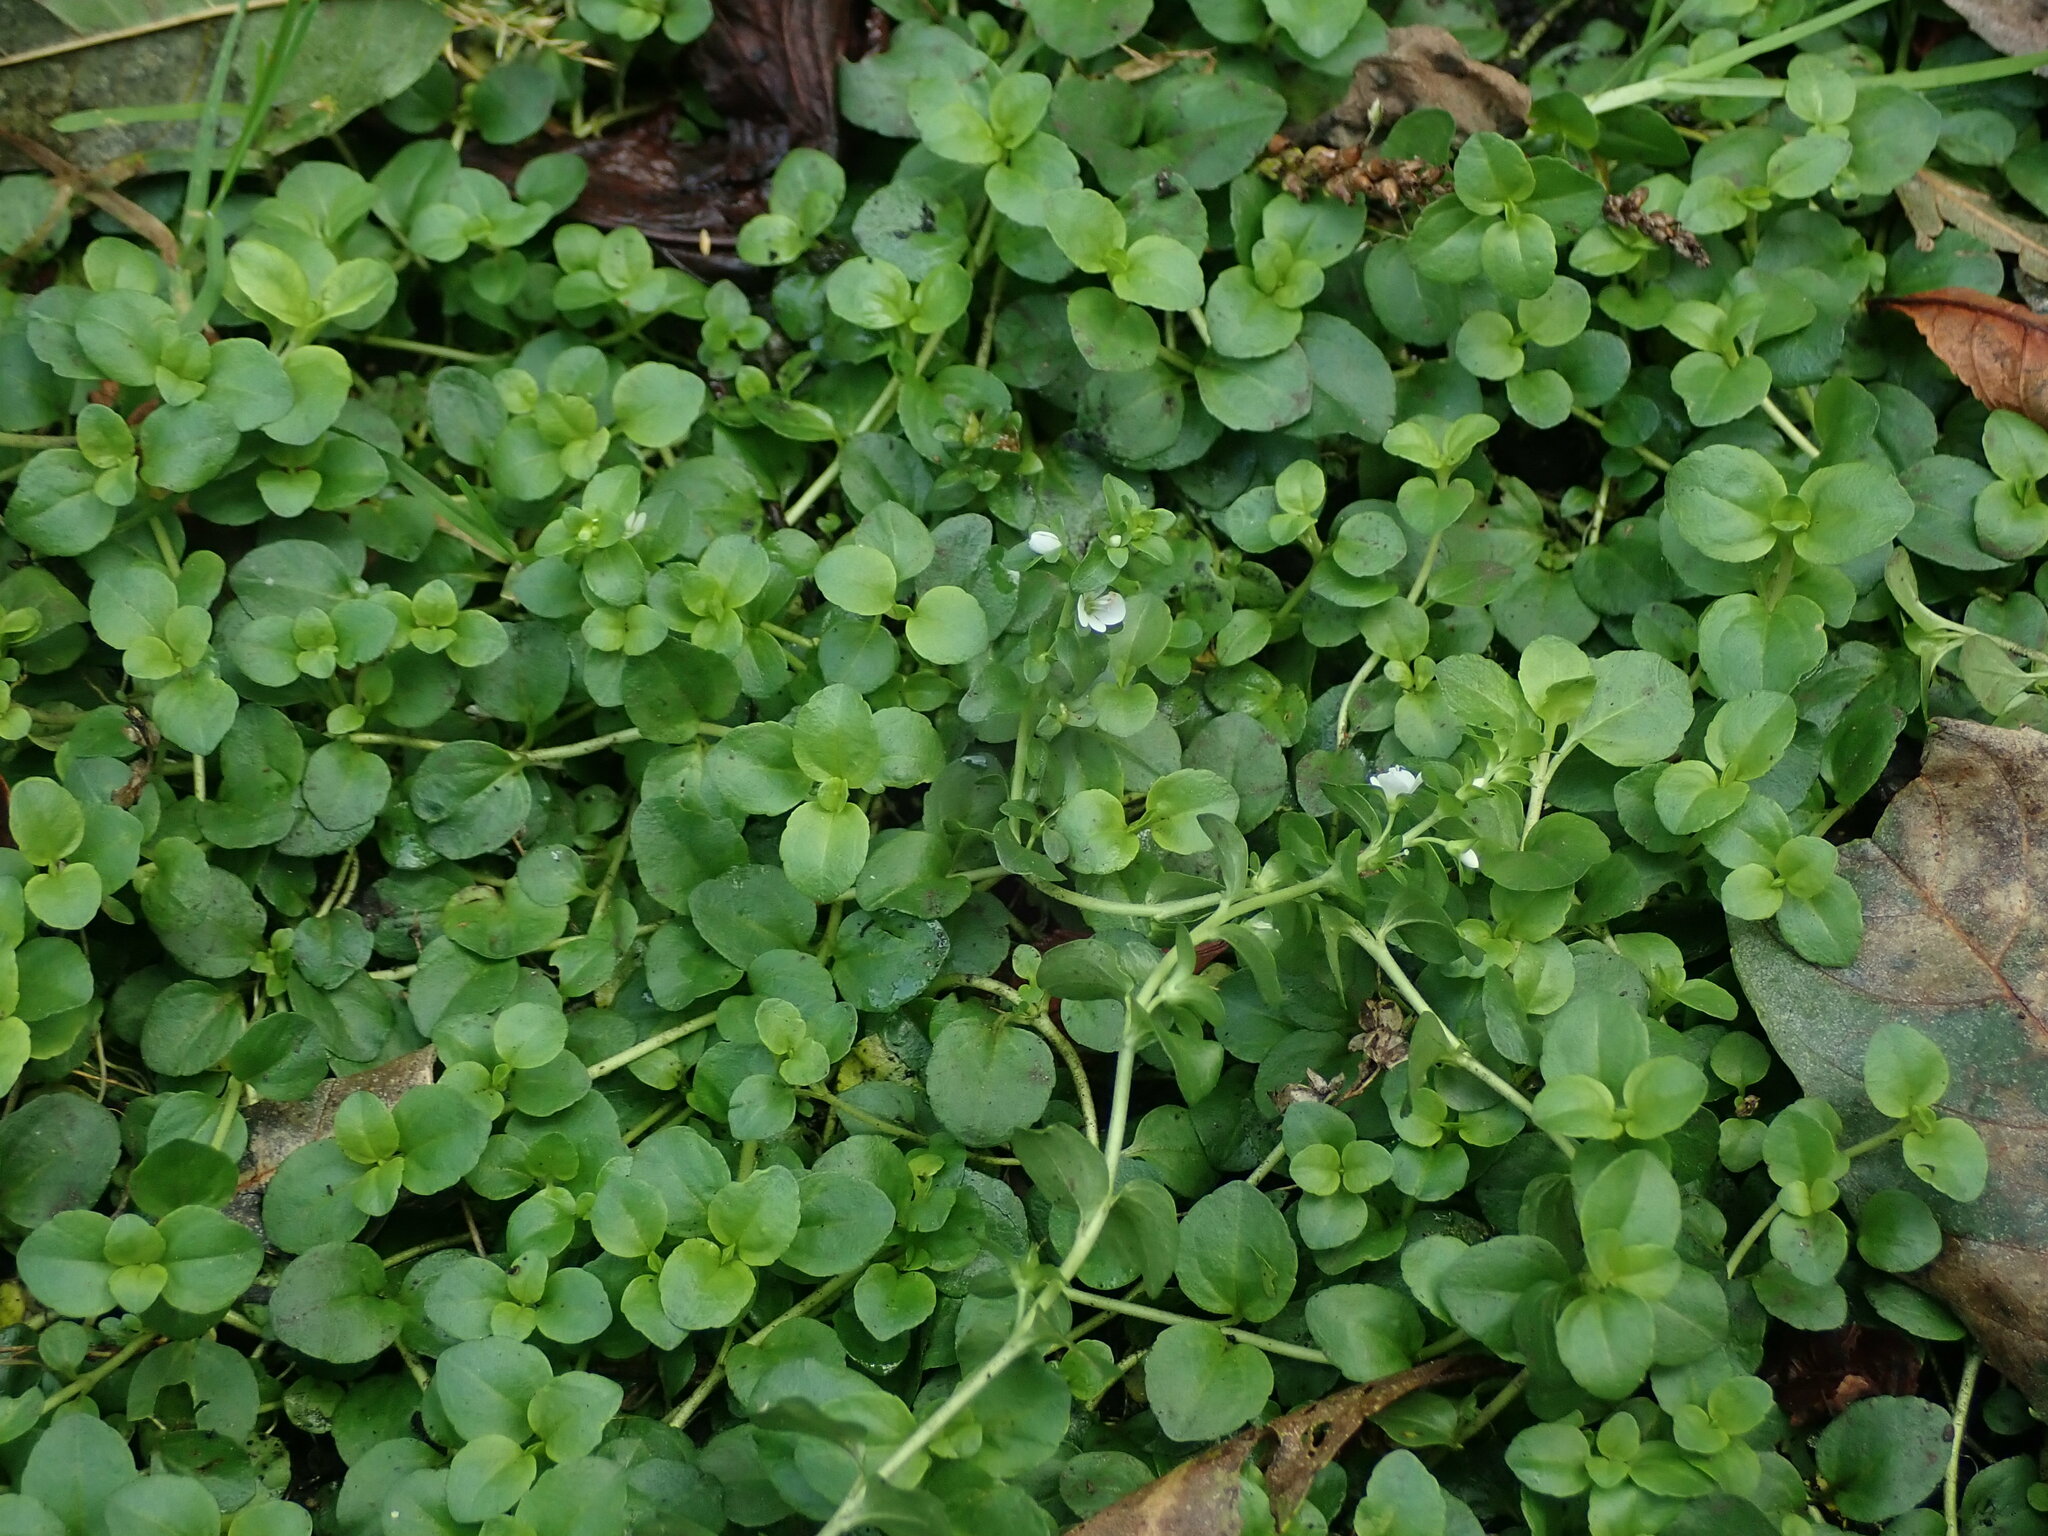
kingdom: Plantae
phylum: Tracheophyta
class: Magnoliopsida
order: Lamiales
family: Plantaginaceae
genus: Veronica
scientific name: Veronica serpyllifolia
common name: Thyme-leaved speedwell
